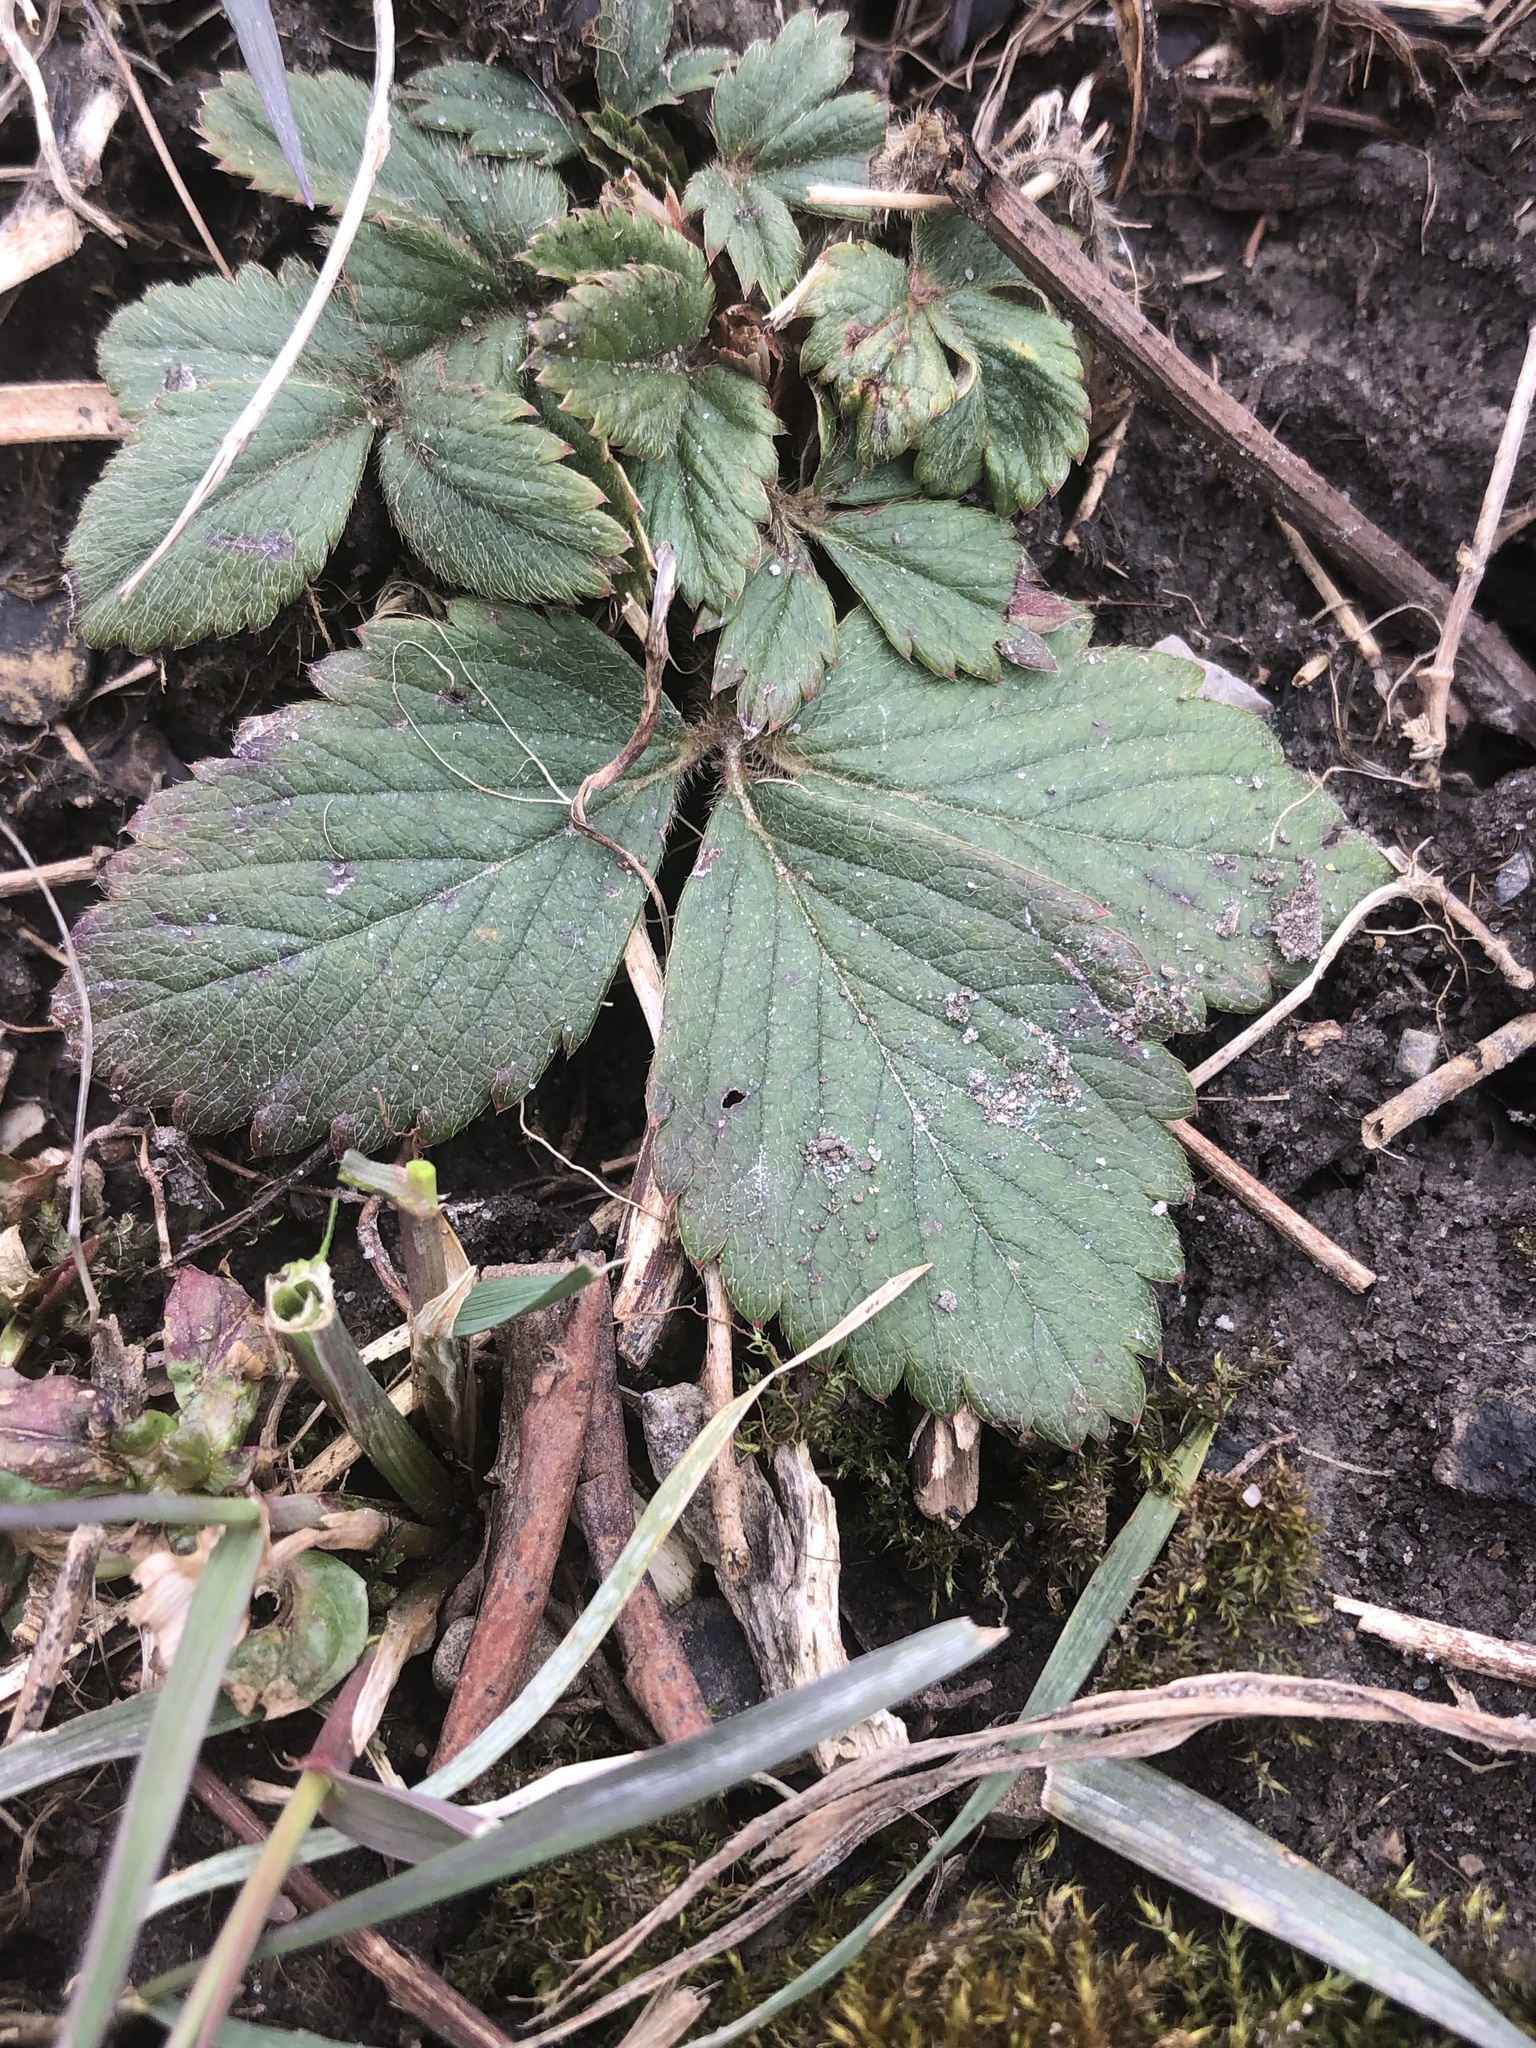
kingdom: Plantae
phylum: Tracheophyta
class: Magnoliopsida
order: Rosales
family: Rosaceae
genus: Fragaria
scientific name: Fragaria virginiana
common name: Thickleaved wild strawberry
